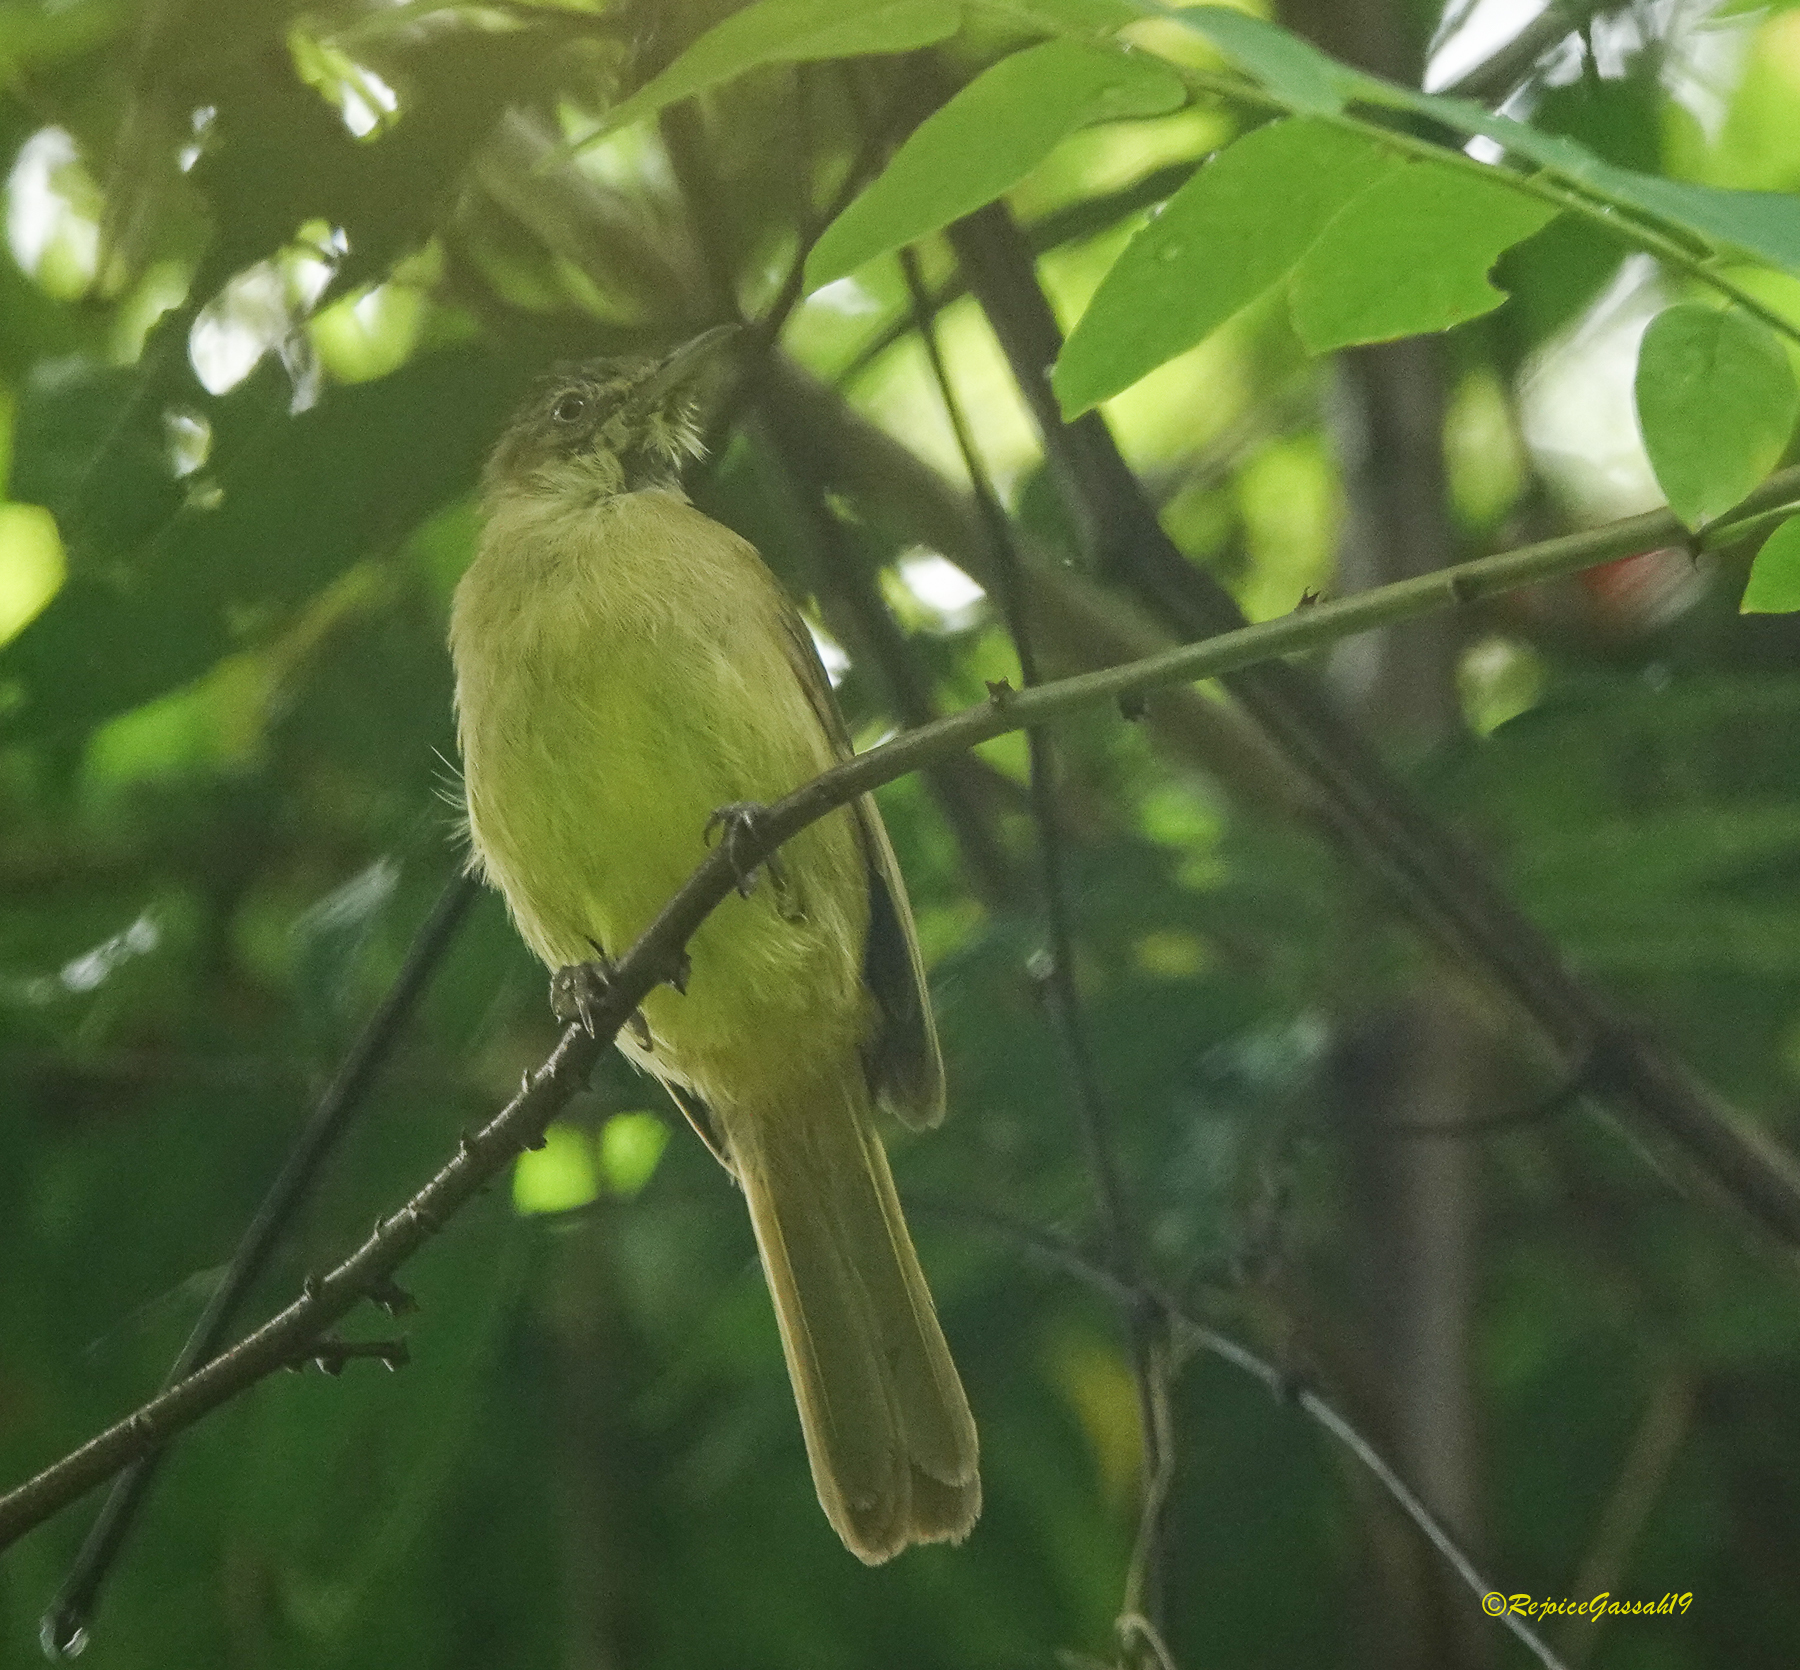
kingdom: Animalia
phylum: Chordata
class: Aves
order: Passeriformes
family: Pycnonotidae
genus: Iole
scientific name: Iole virescens
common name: Olive bulbul
